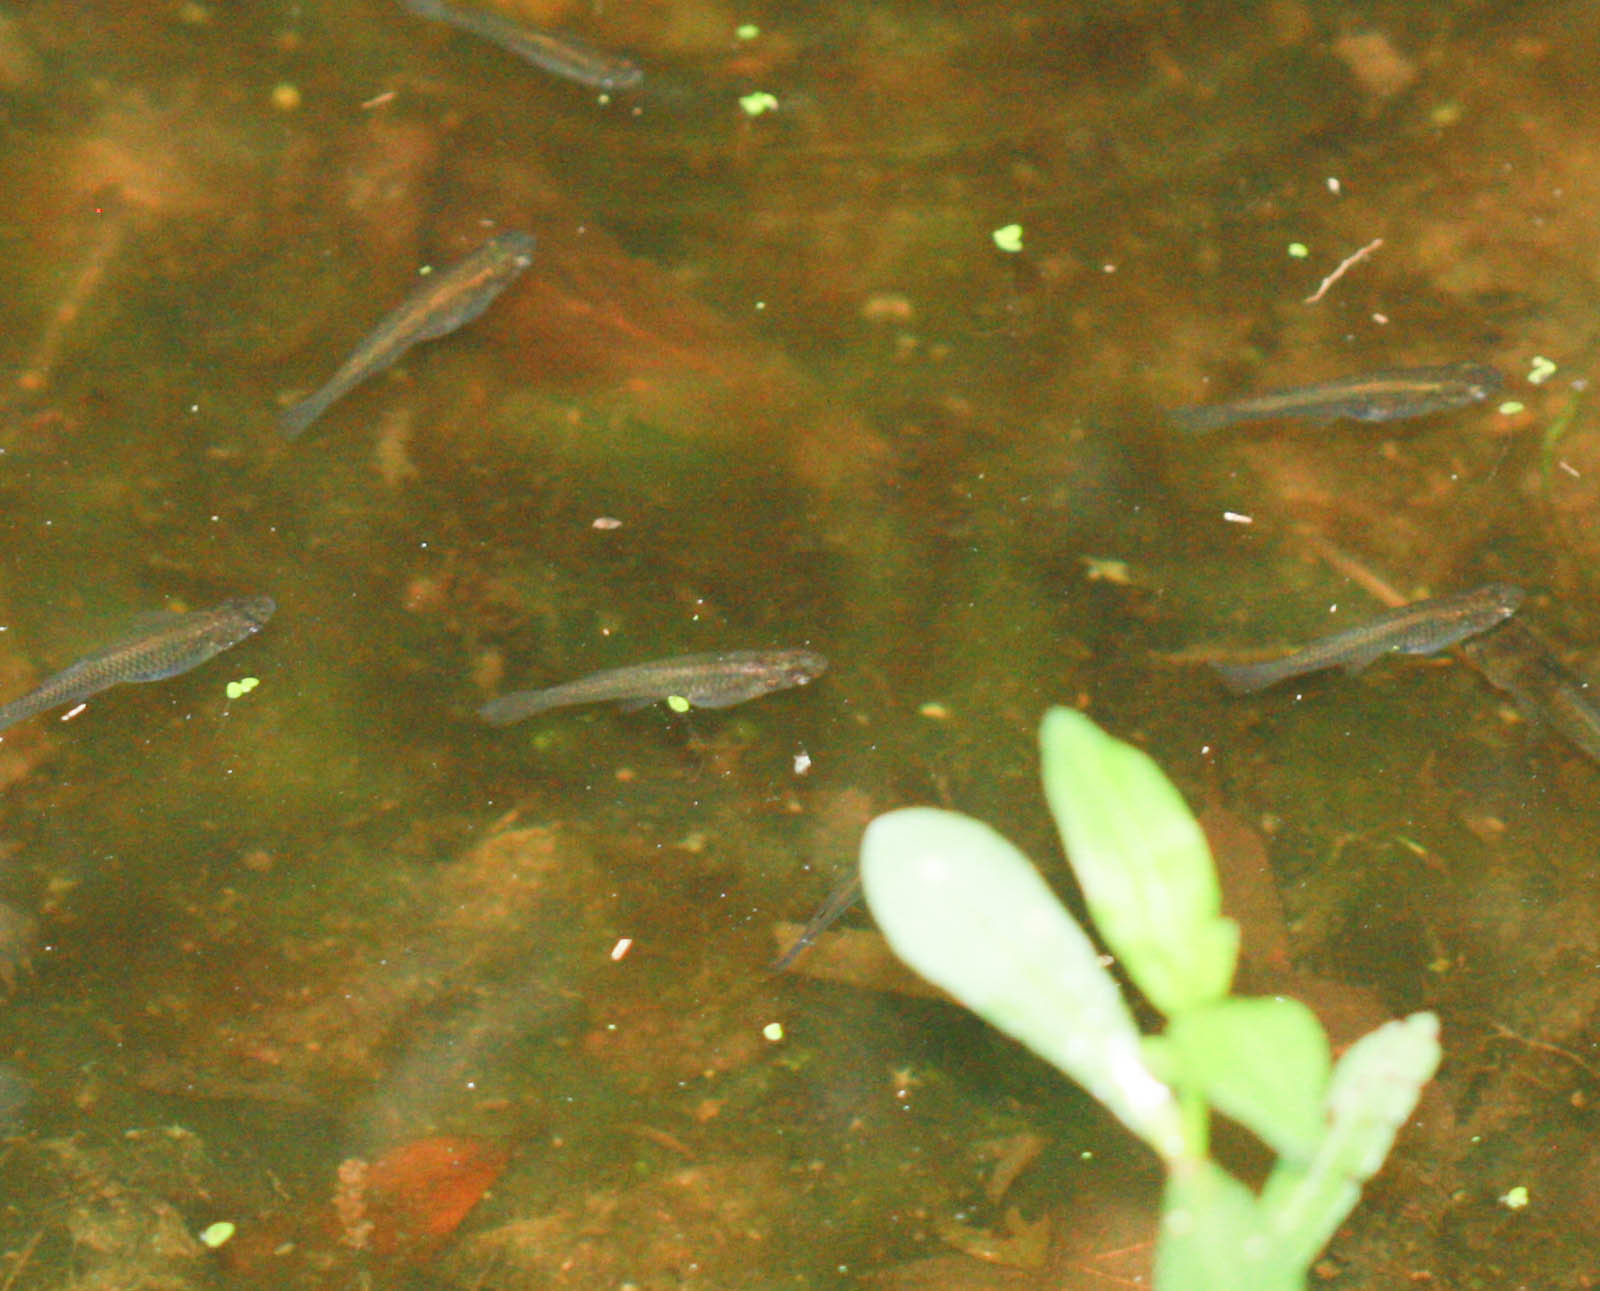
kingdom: Animalia
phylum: Chordata
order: Cyprinodontiformes
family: Poeciliidae
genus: Gambusia
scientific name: Gambusia affinis
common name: Mosquitofish
